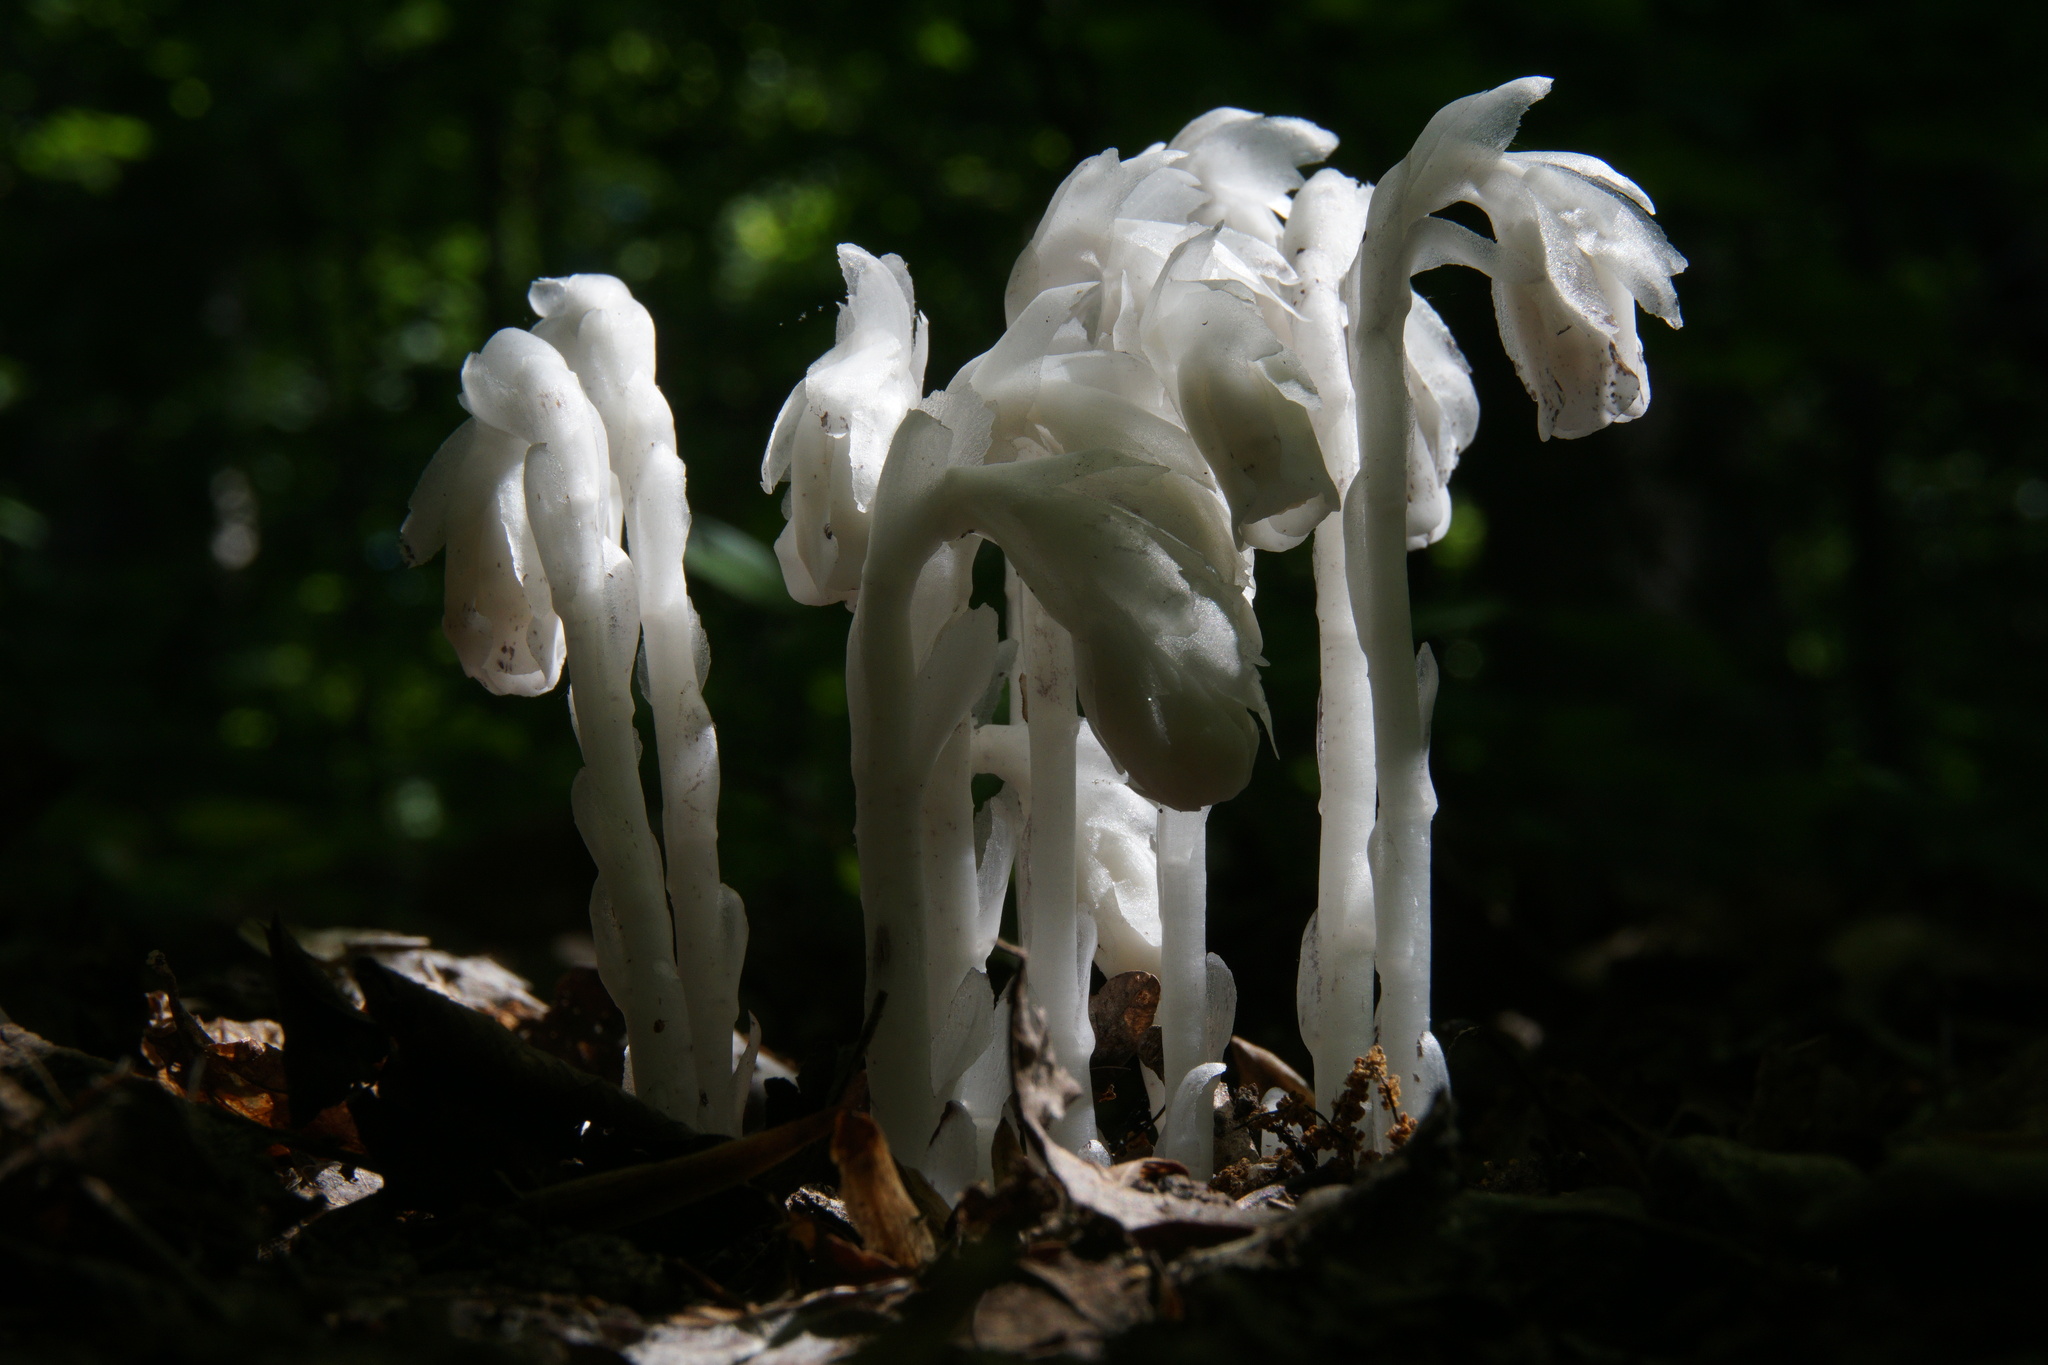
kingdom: Plantae
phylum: Tracheophyta
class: Magnoliopsida
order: Ericales
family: Ericaceae
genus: Monotropa
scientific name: Monotropa uniflora
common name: Convulsion root
